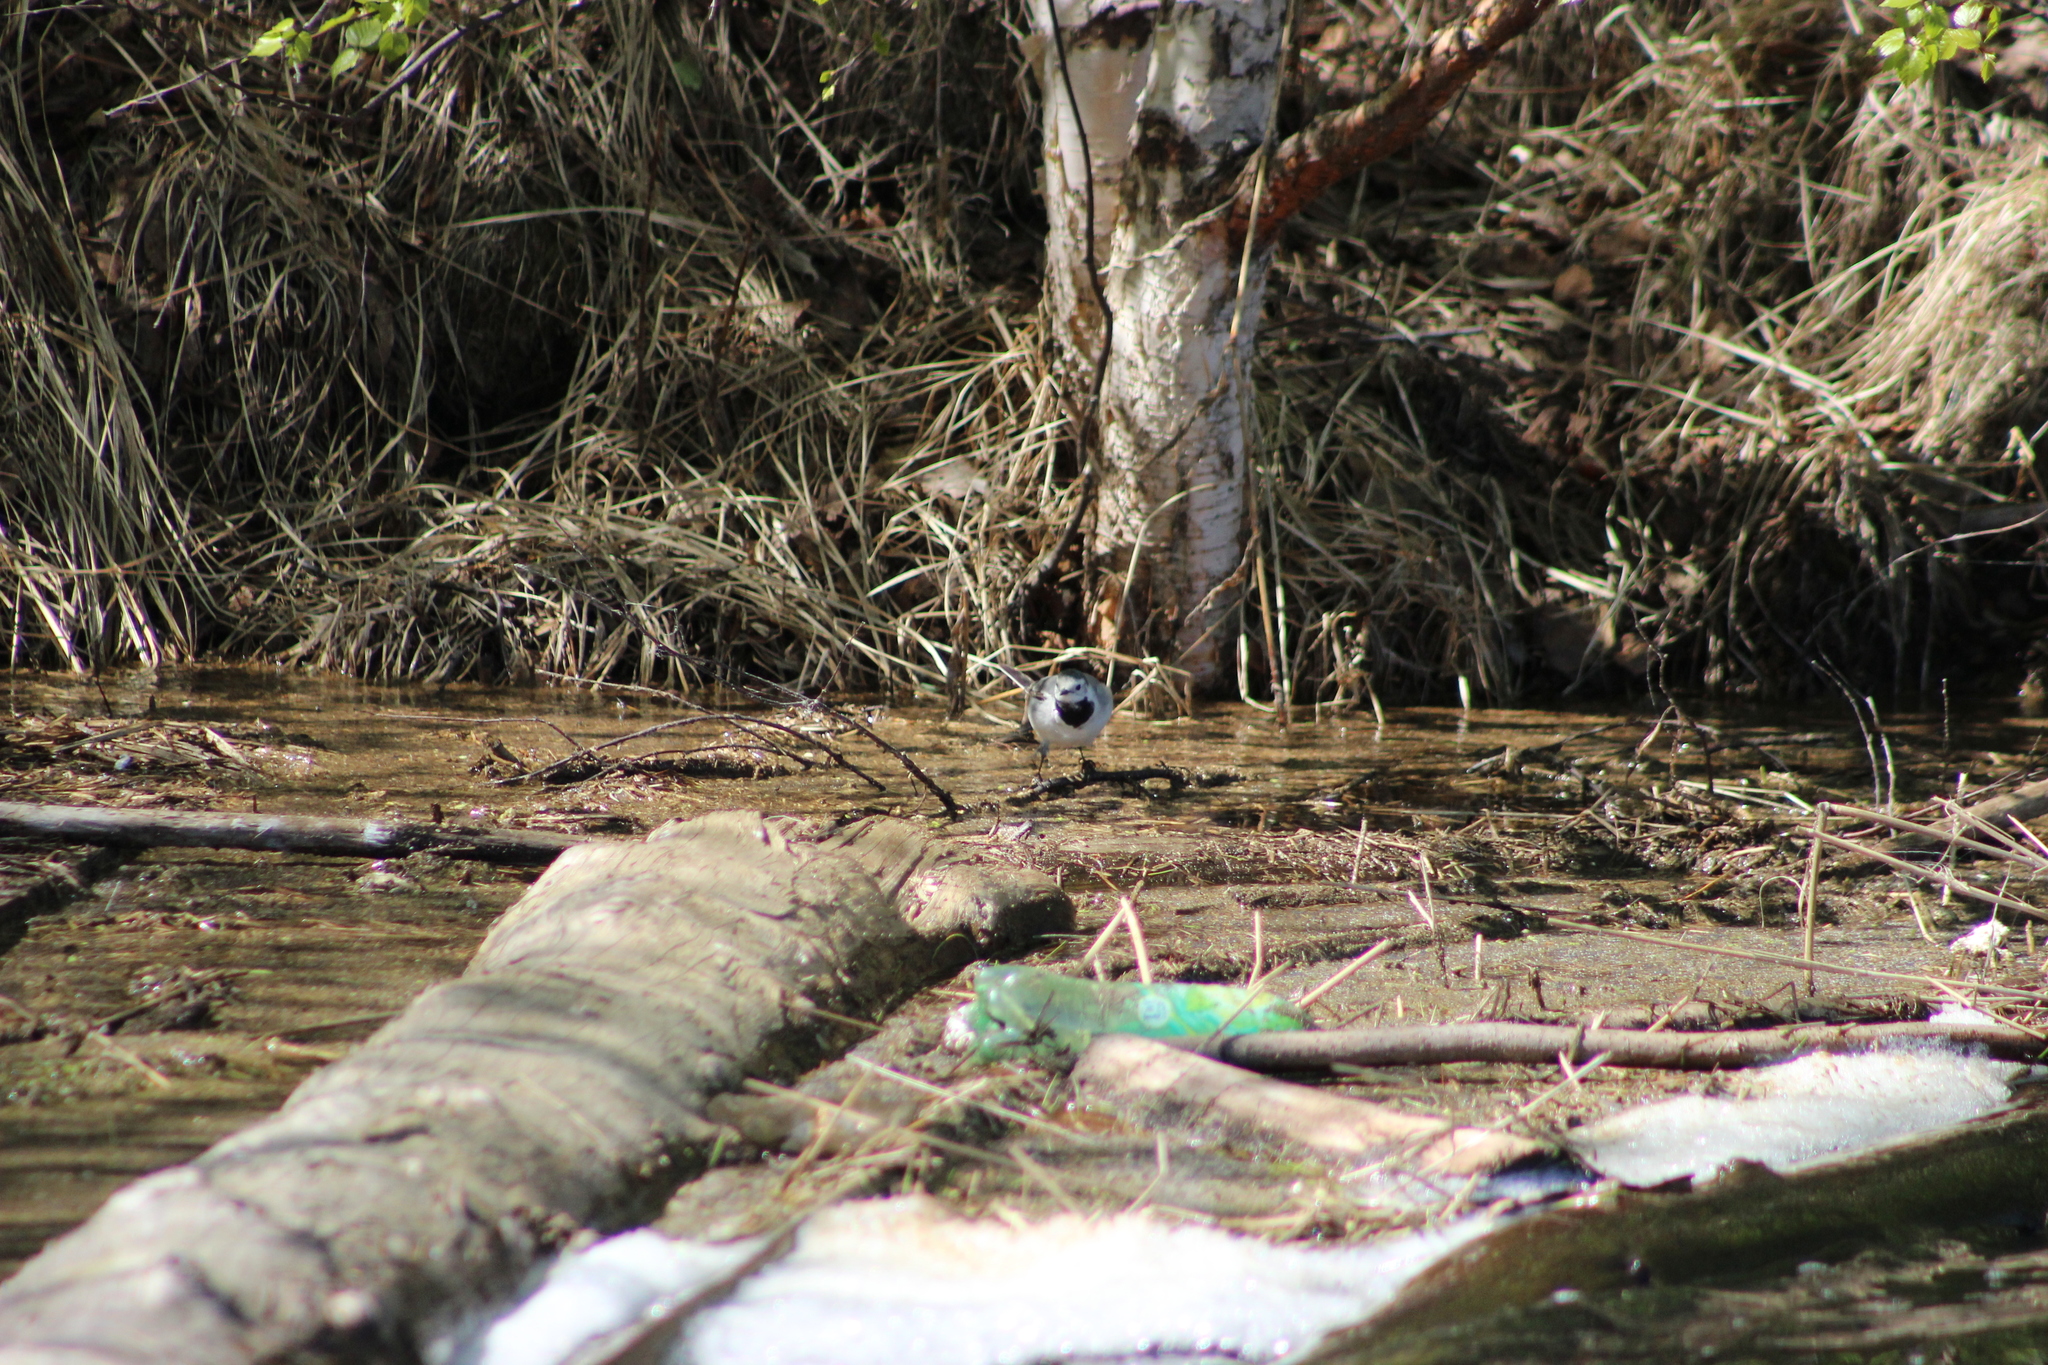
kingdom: Animalia
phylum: Chordata
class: Aves
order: Passeriformes
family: Motacillidae
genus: Motacilla
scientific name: Motacilla alba
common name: White wagtail
